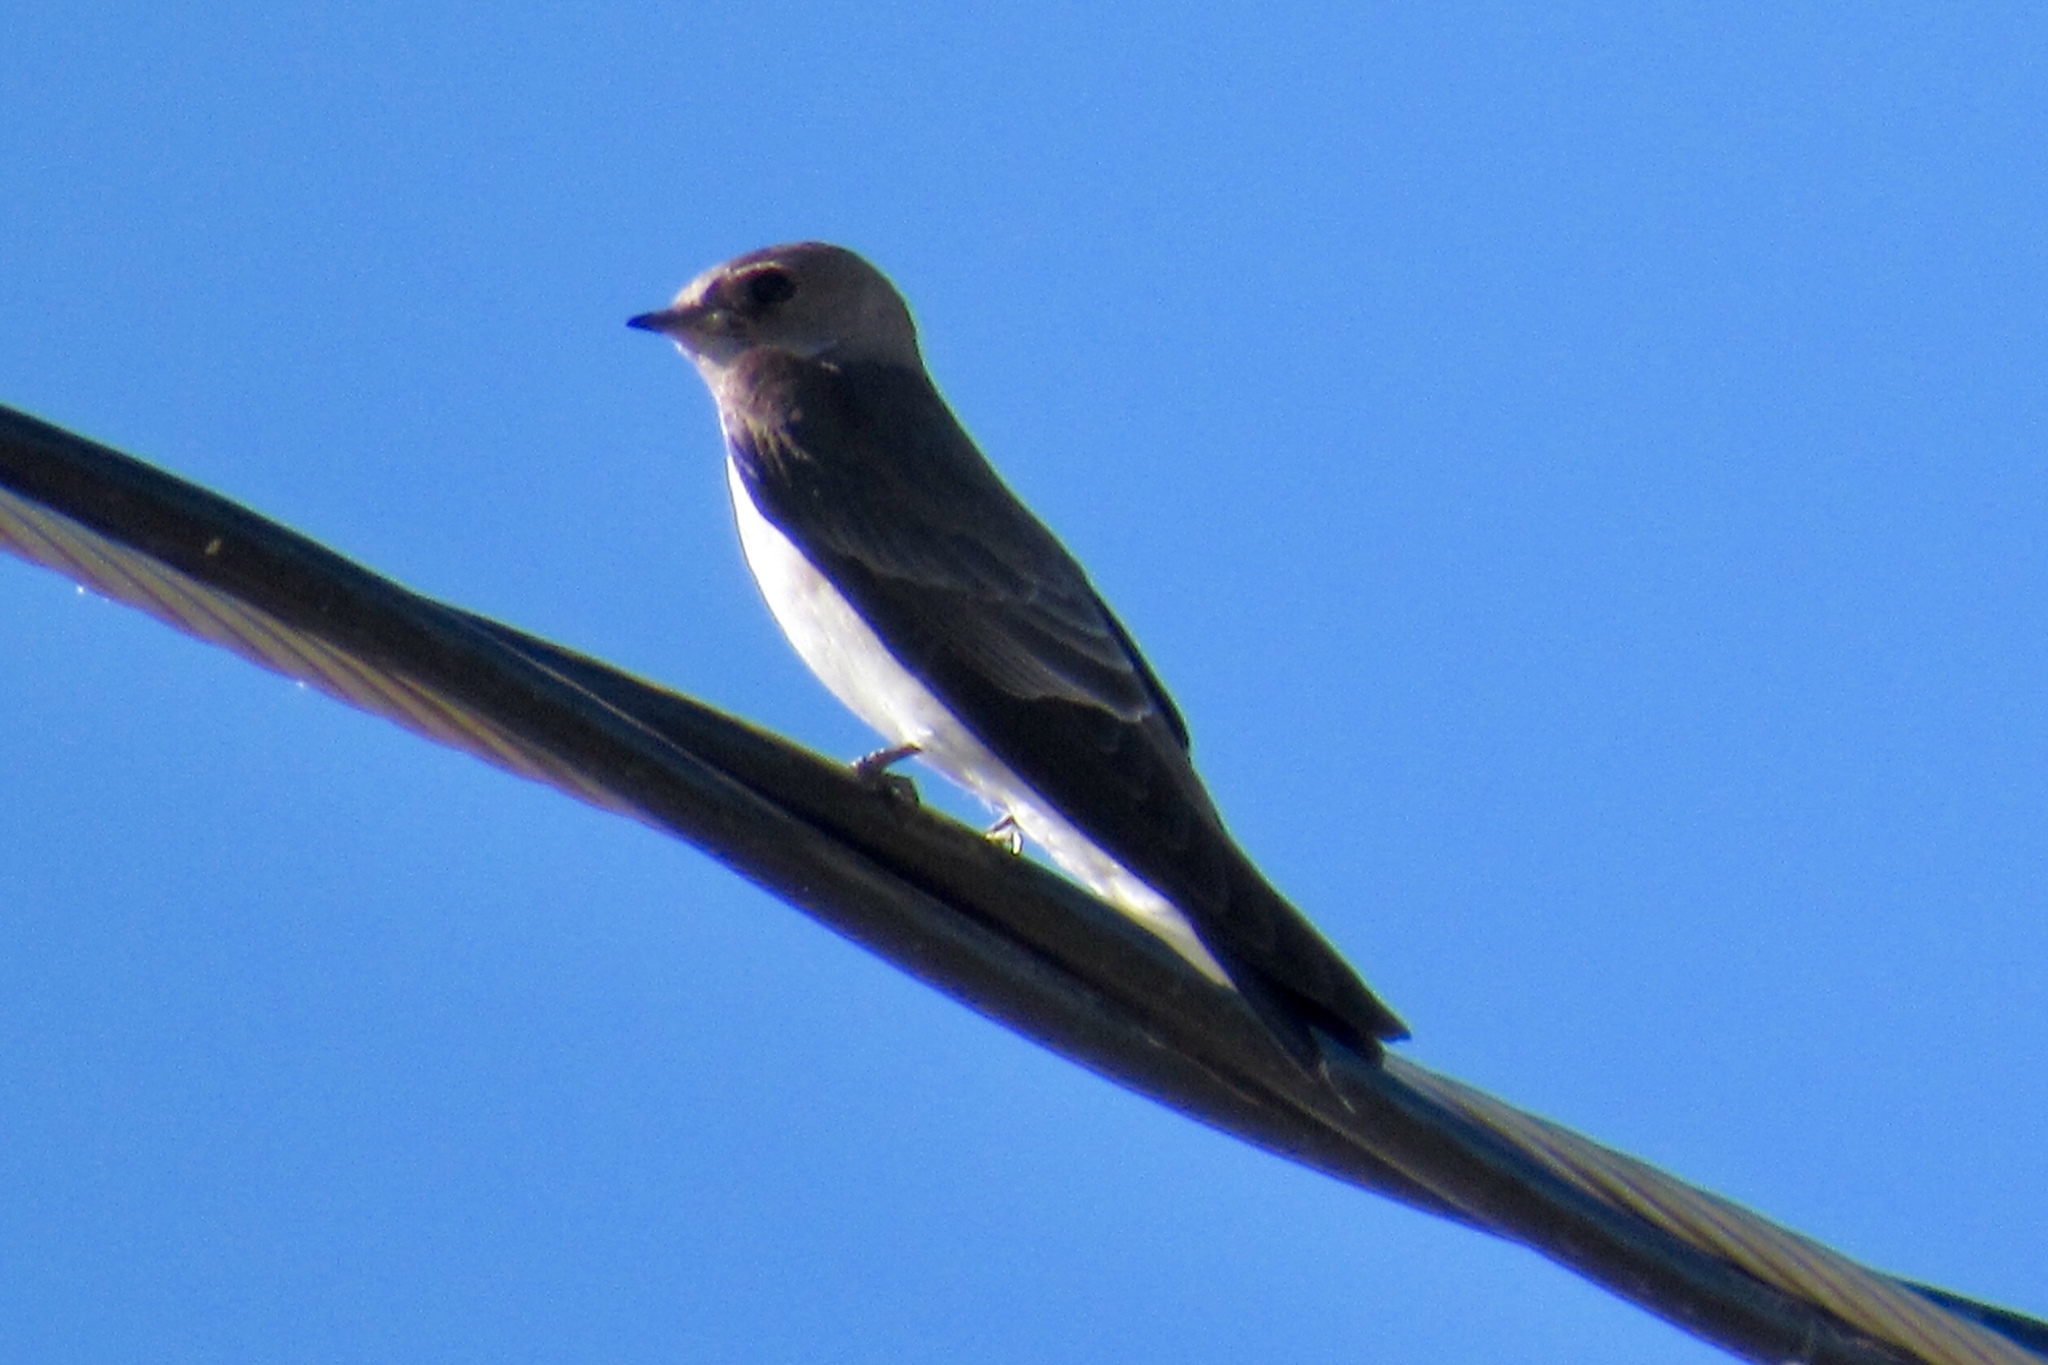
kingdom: Animalia
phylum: Chordata
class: Aves
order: Passeriformes
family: Hirundinidae
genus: Stelgidopteryx
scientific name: Stelgidopteryx serripennis
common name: Northern rough-winged swallow
